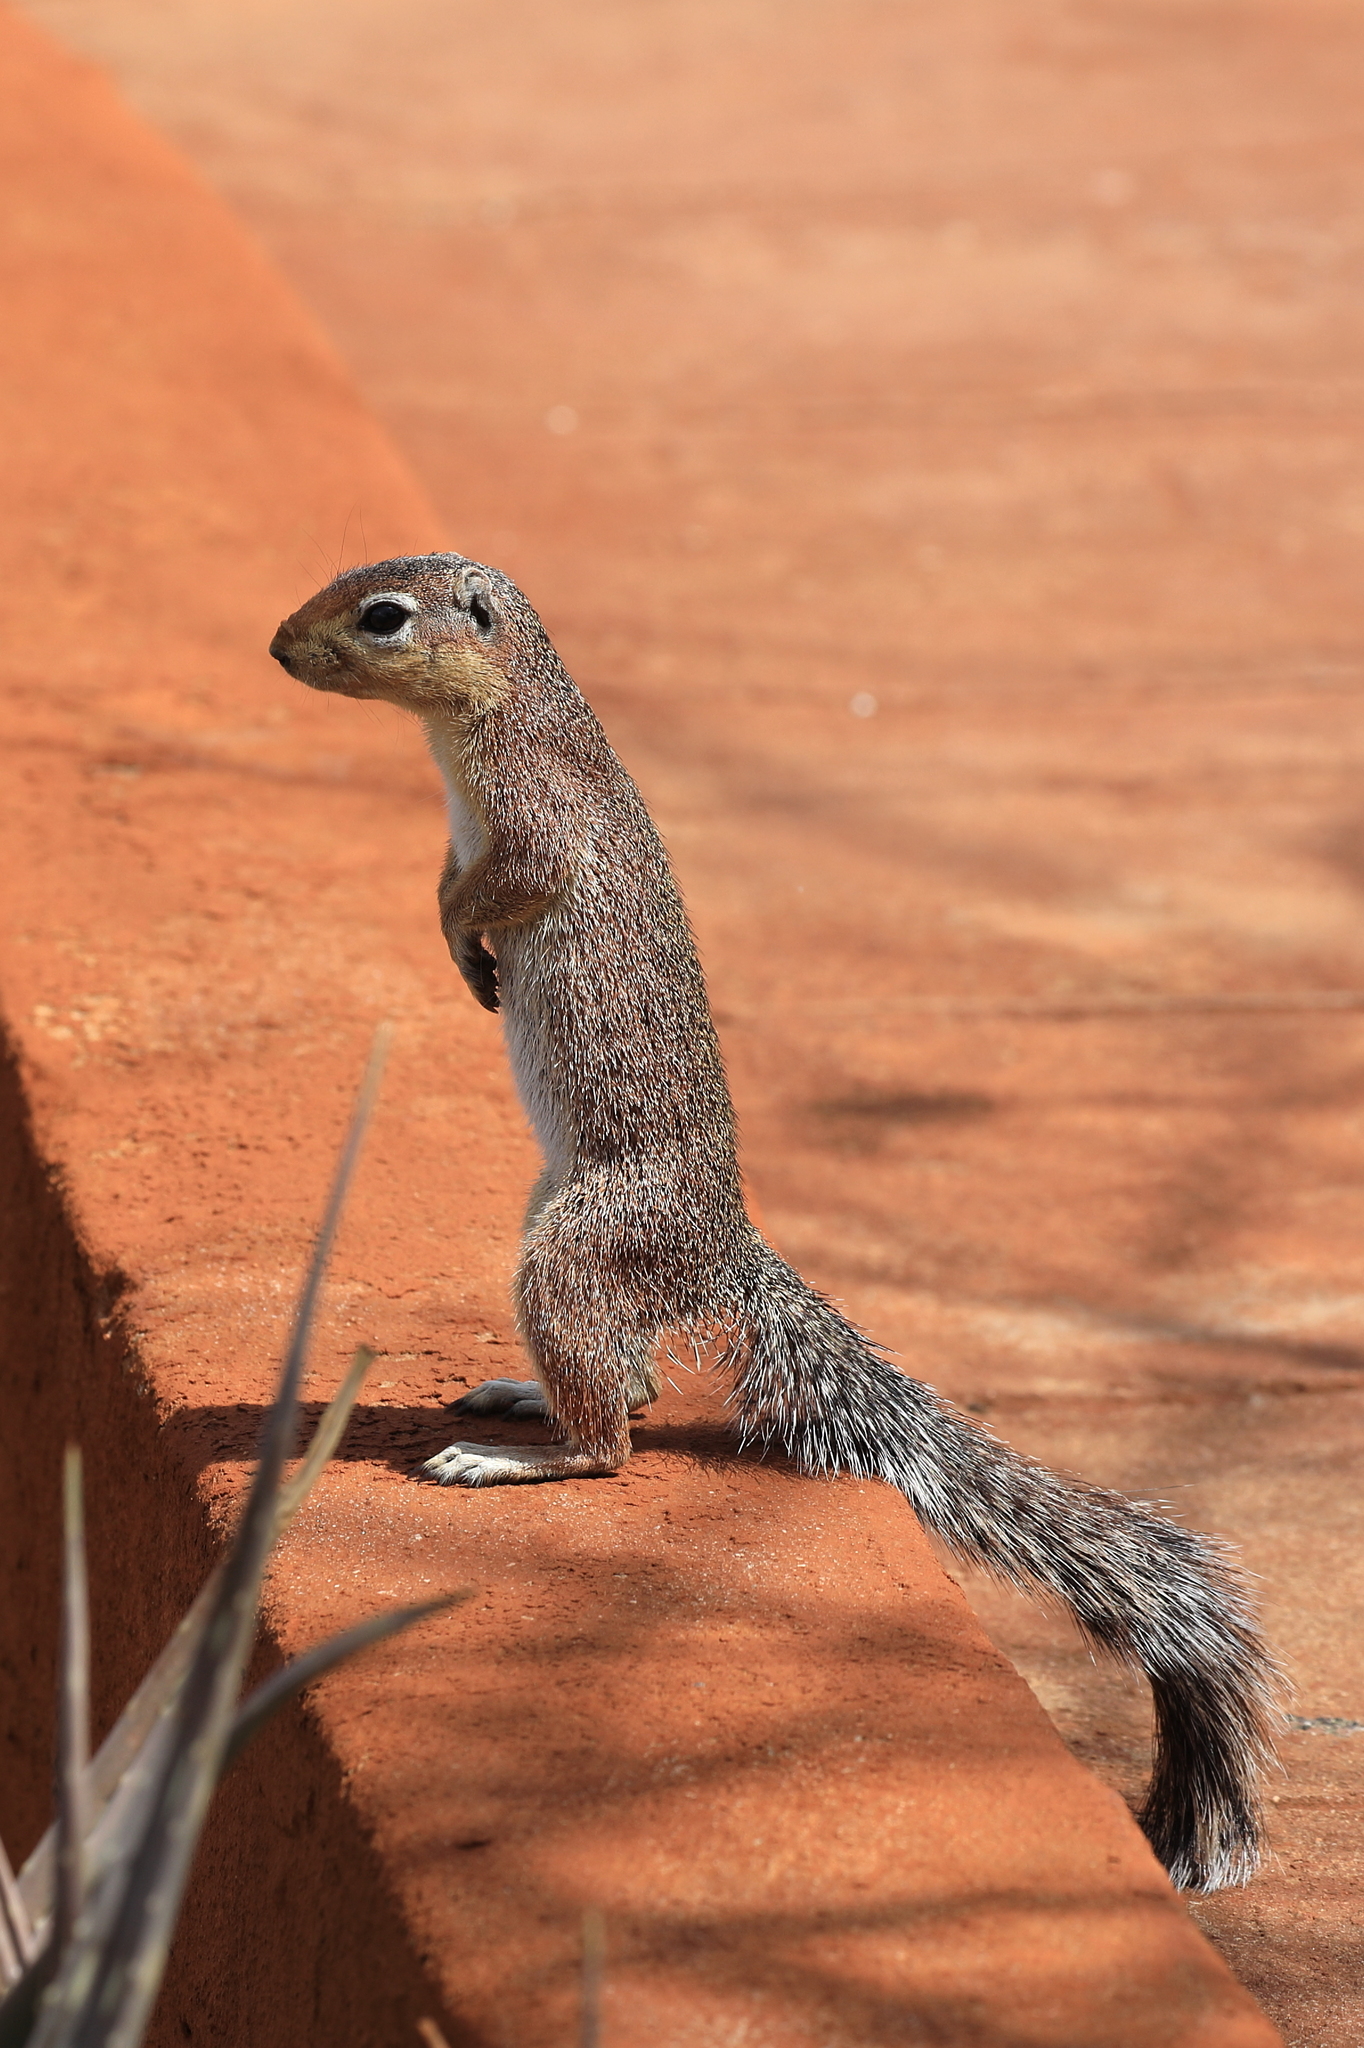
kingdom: Animalia
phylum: Chordata
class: Mammalia
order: Rodentia
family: Sciuridae
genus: Xerus
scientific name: Xerus rutilus
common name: Unstriped ground squirrel
